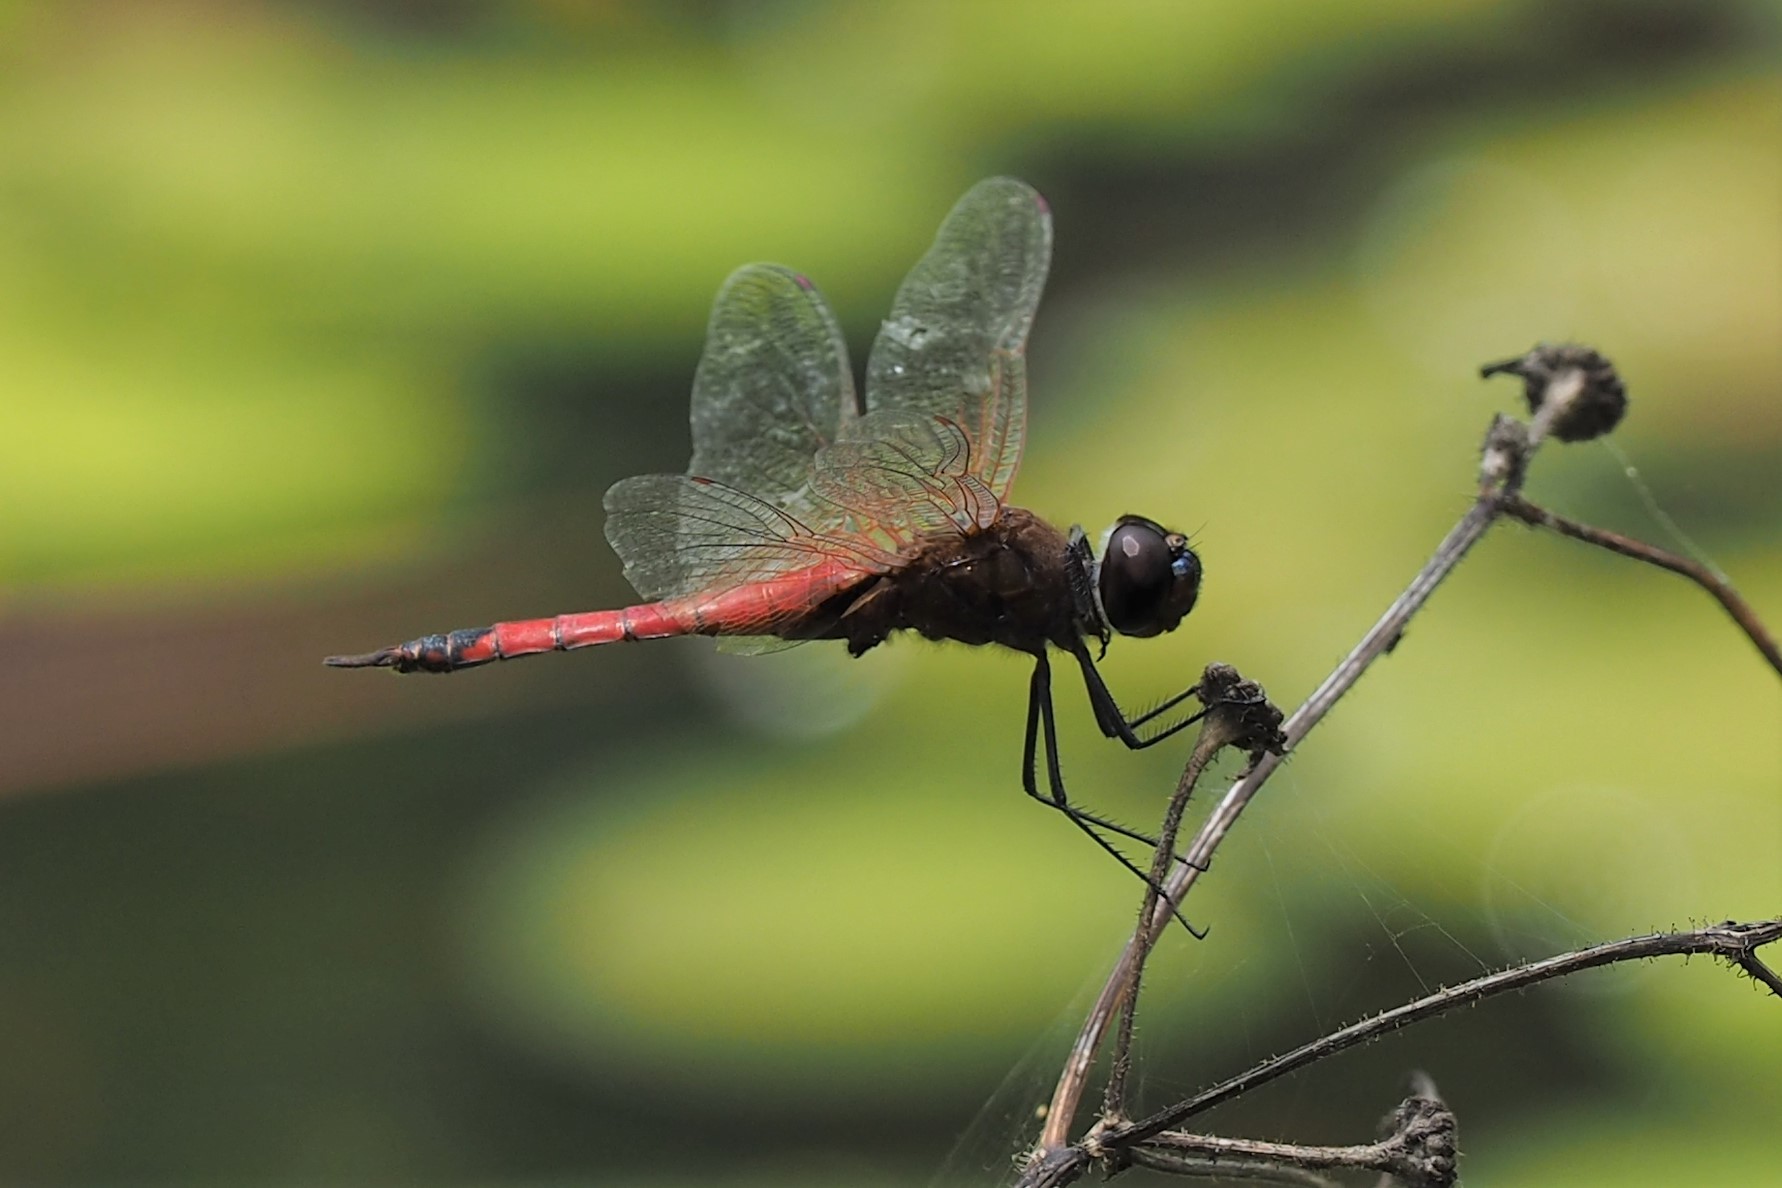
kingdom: Animalia
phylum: Arthropoda
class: Insecta
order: Odonata
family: Libellulidae
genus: Tramea
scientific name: Tramea transmarina
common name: Red glider dragonfly
